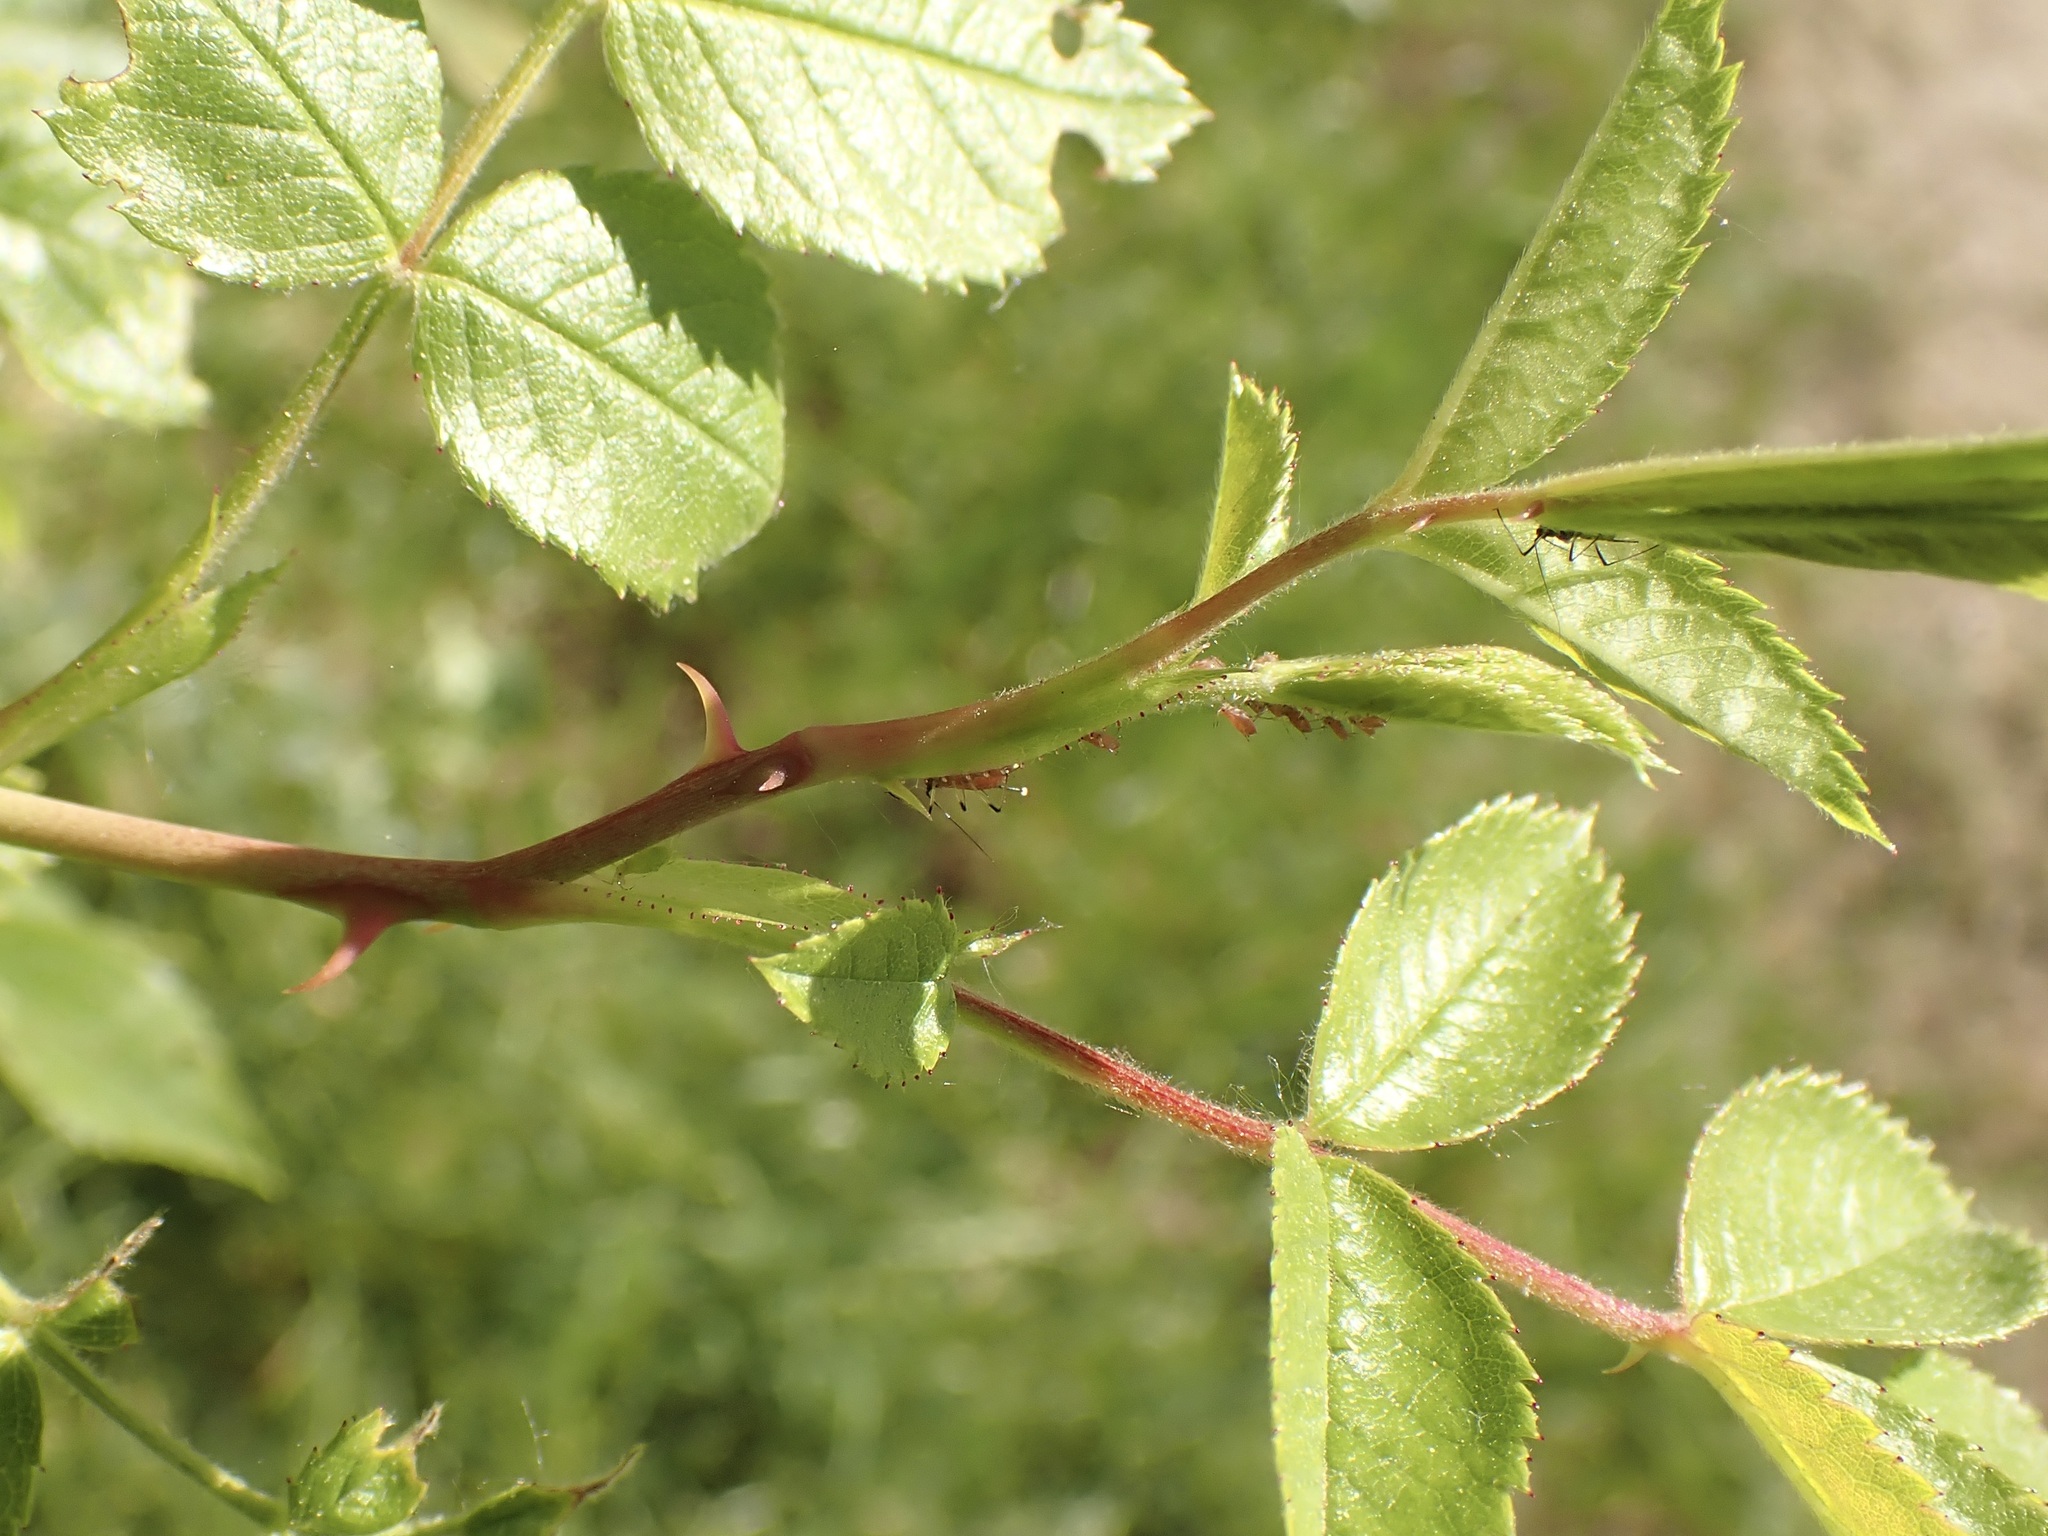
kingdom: Plantae
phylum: Tracheophyta
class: Magnoliopsida
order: Rosales
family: Rosaceae
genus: Rosa
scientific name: Rosa canina
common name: Dog rose
